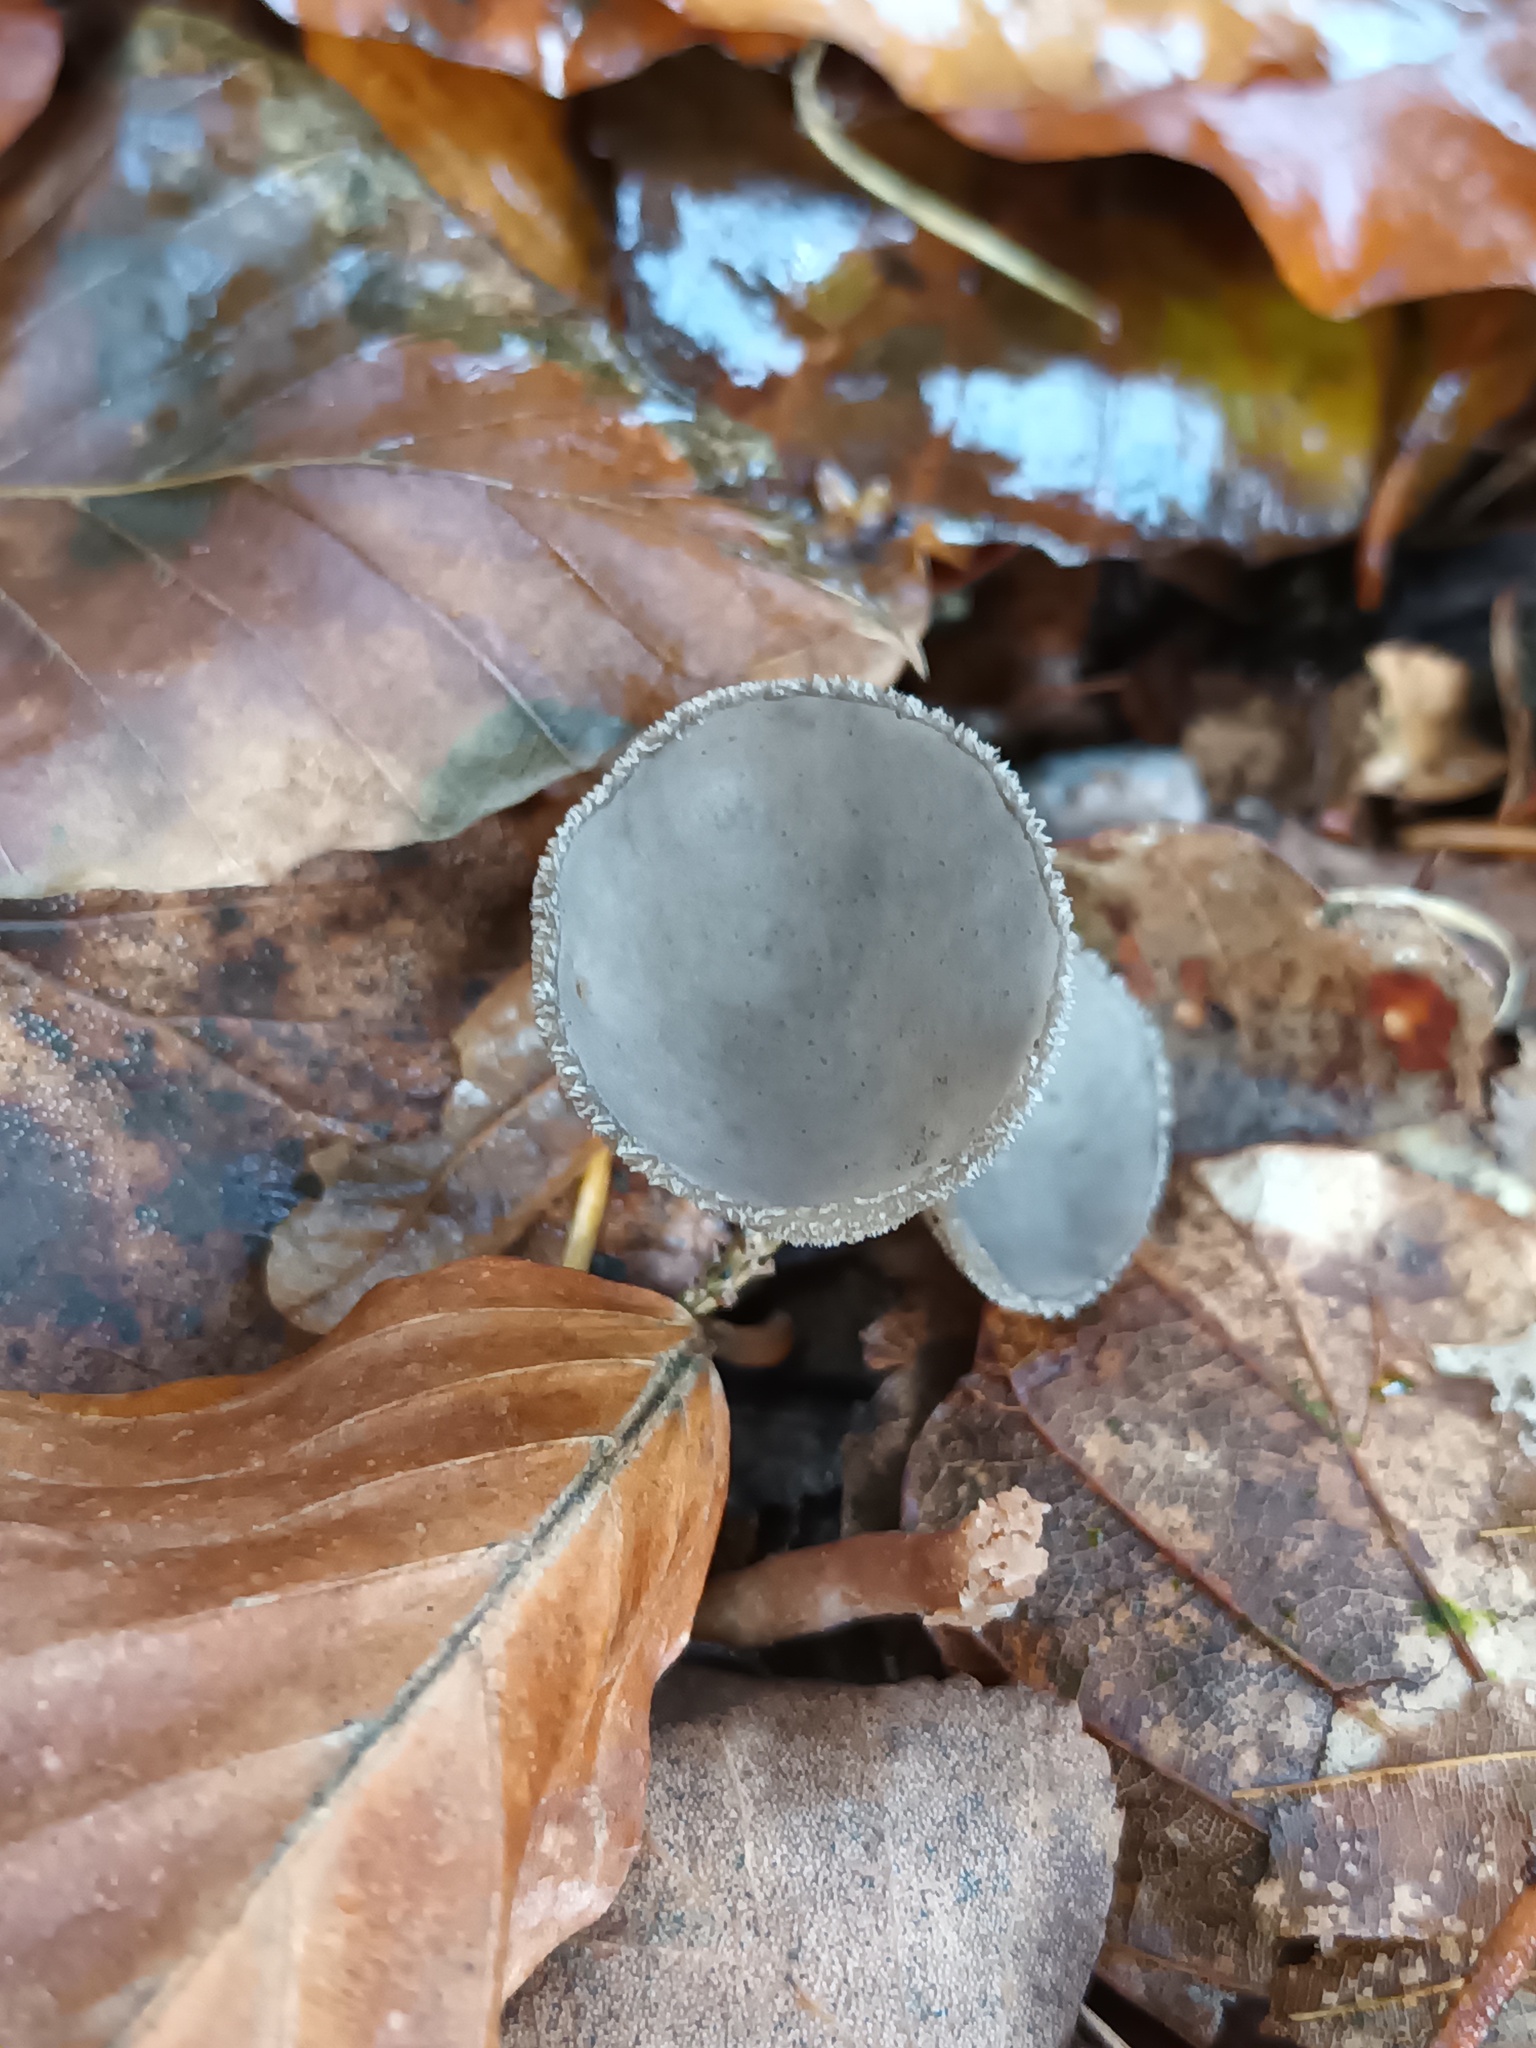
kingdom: Fungi
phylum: Ascomycota
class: Pezizomycetes
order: Pezizales
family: Helvellaceae
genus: Helvella
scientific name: Helvella macropus
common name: Felt saddle
